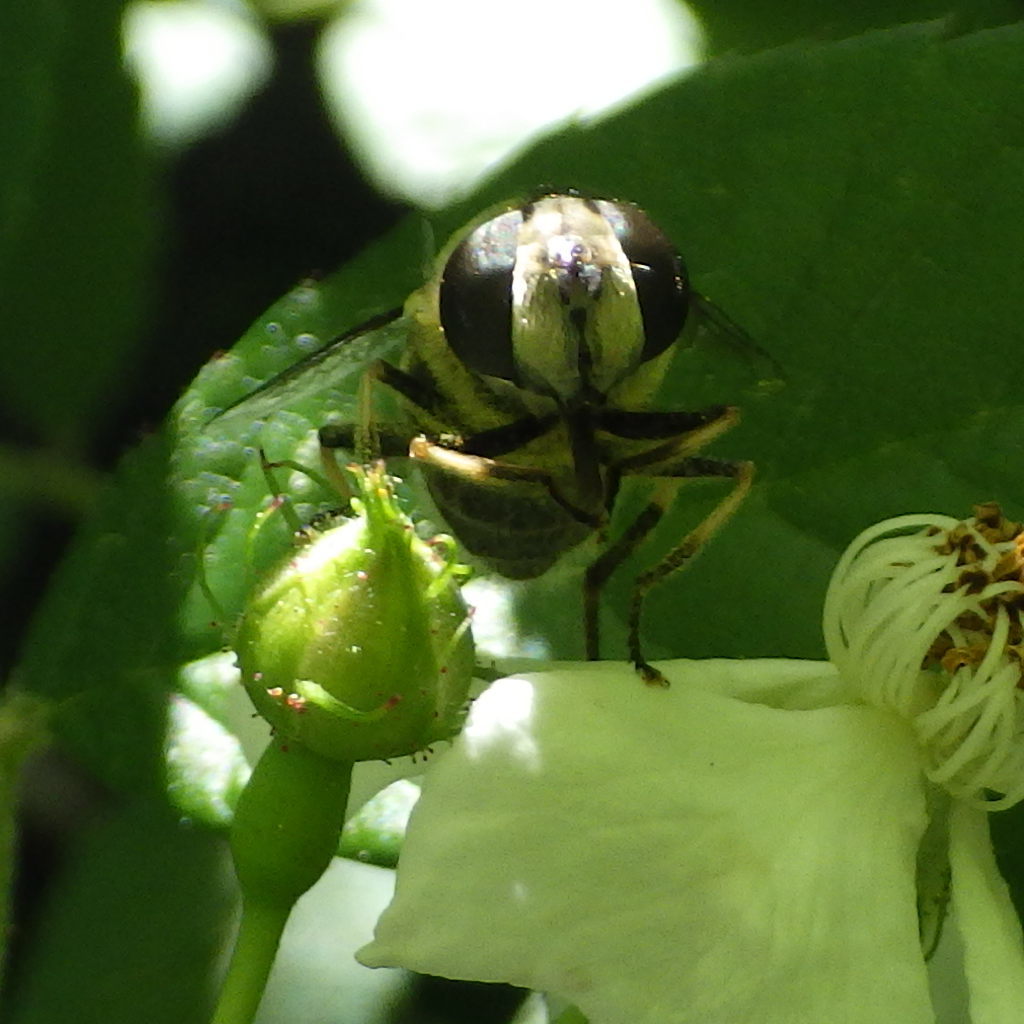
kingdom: Animalia
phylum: Arthropoda
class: Insecta
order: Diptera
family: Syrphidae
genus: Eristalis
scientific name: Eristalis dimidiata
